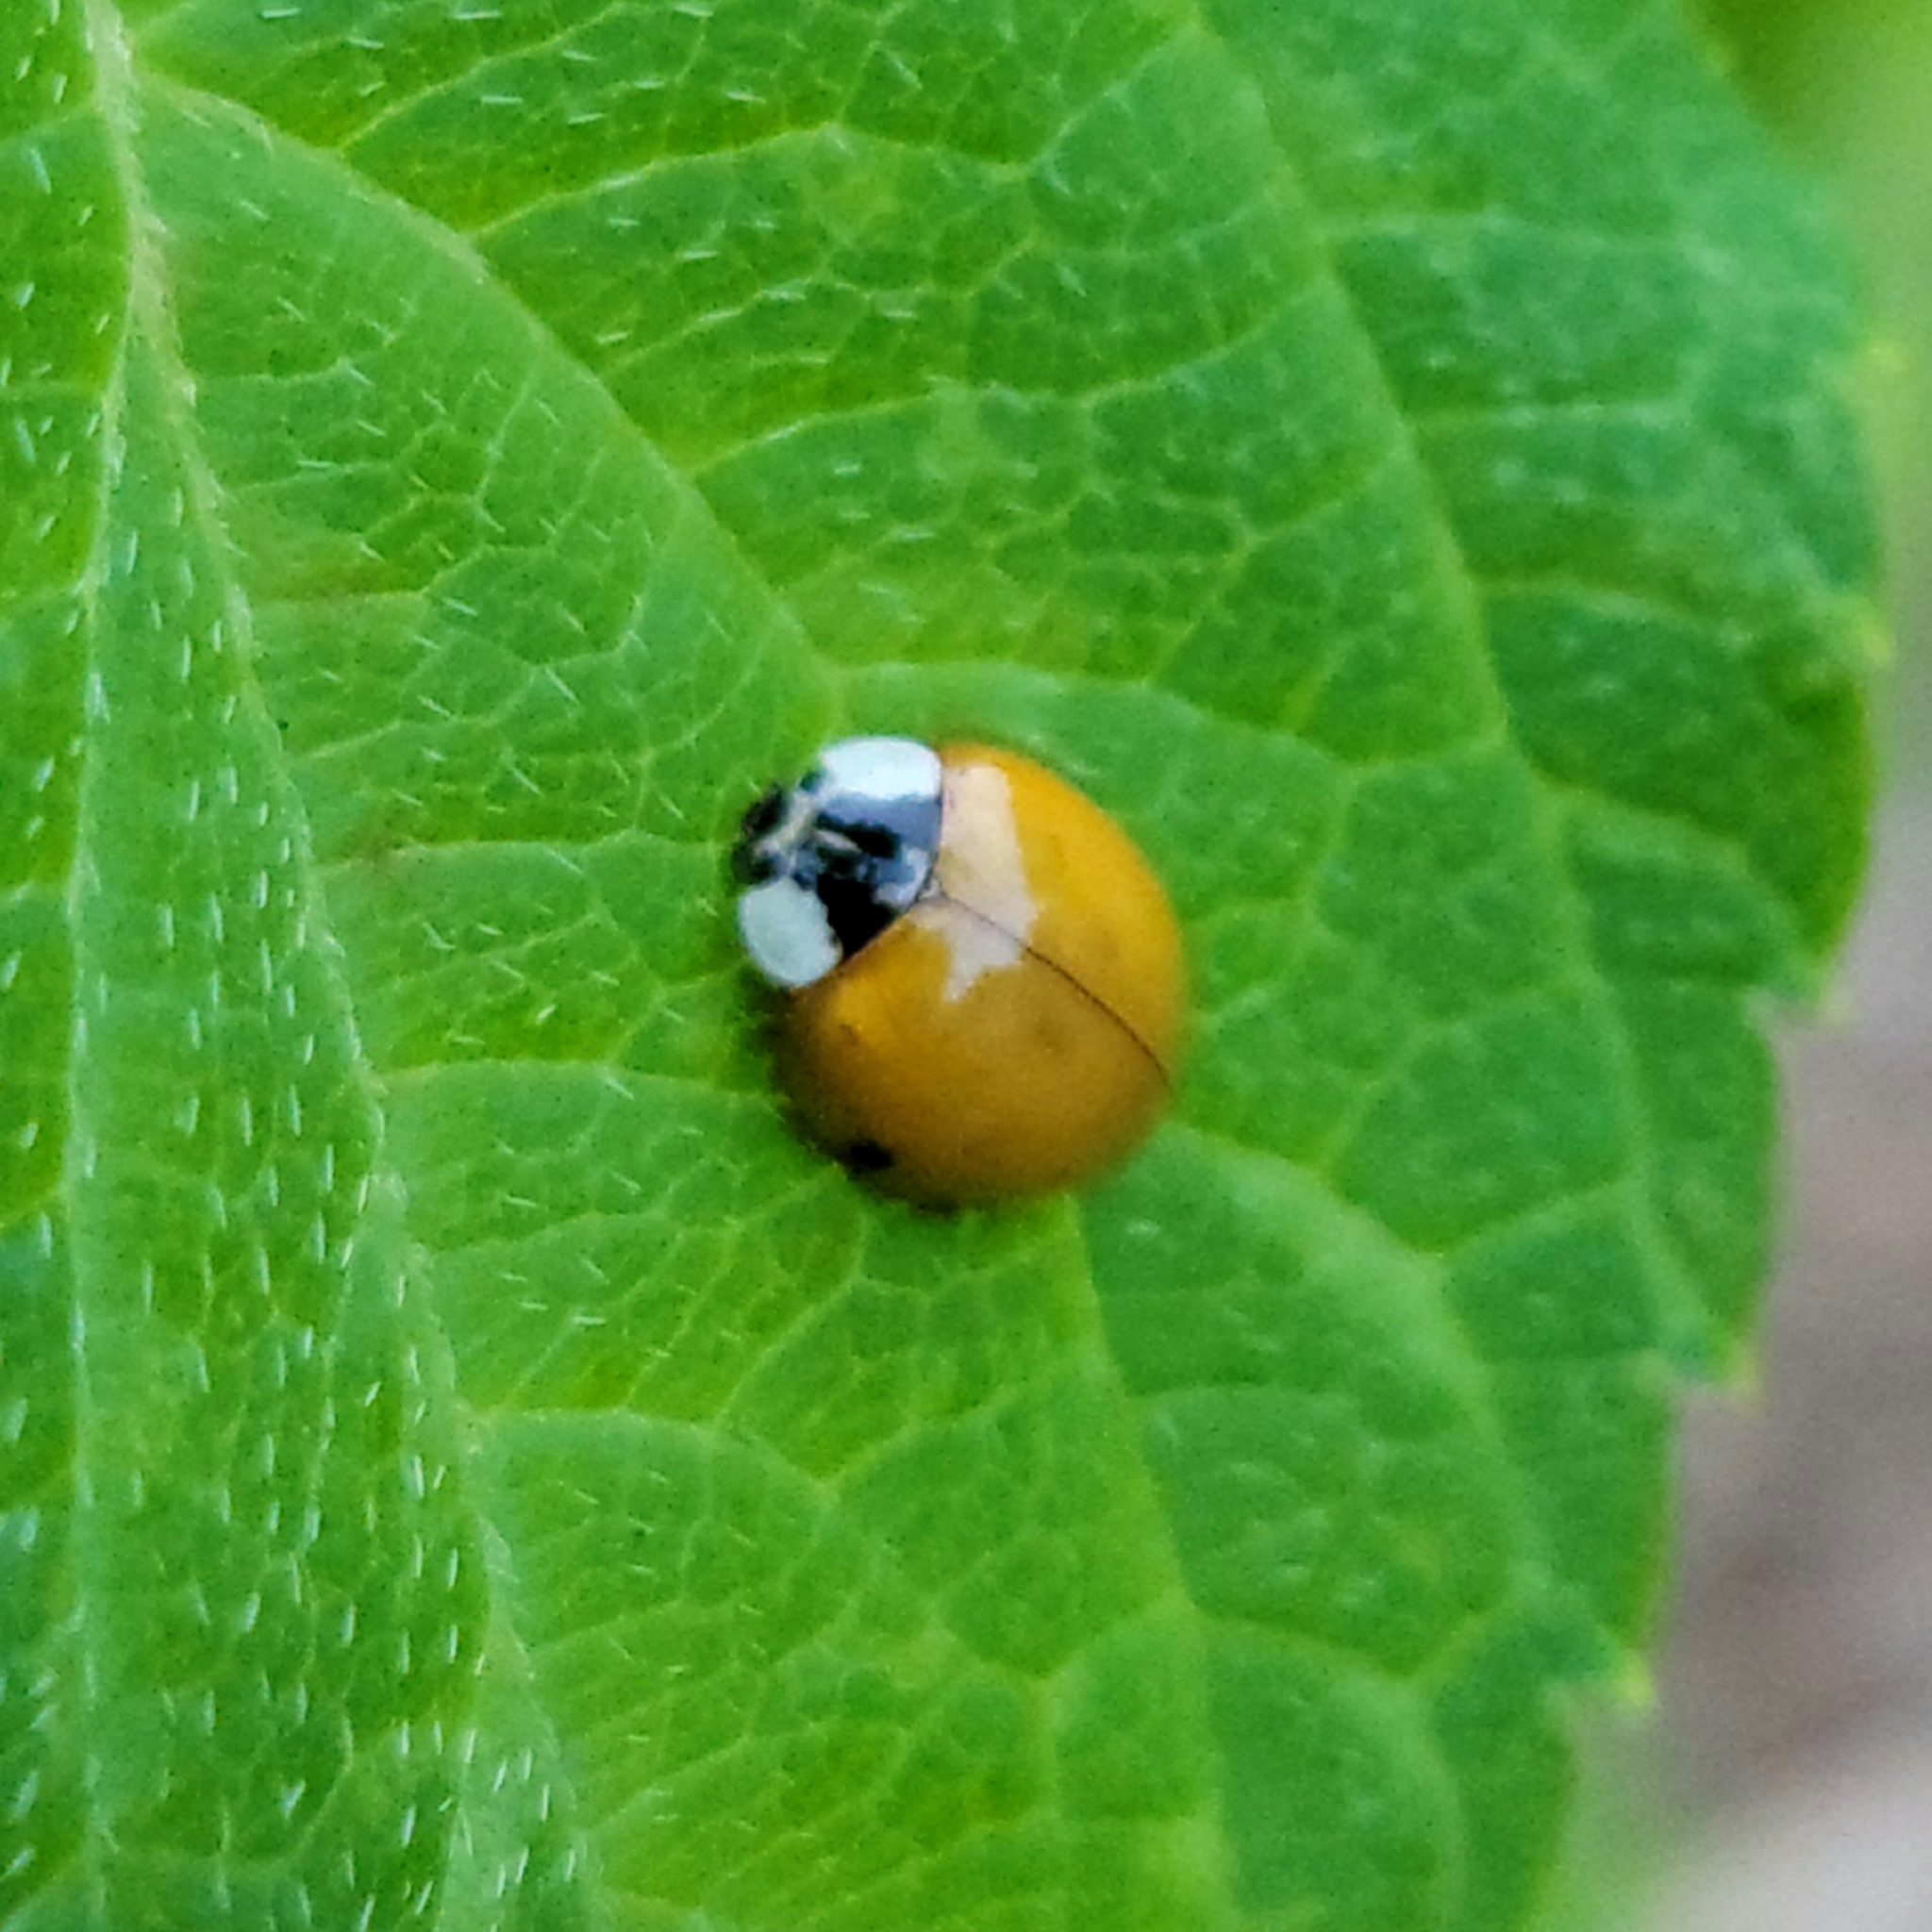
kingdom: Animalia
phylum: Arthropoda
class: Insecta
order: Coleoptera
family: Coccinellidae
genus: Harmonia
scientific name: Harmonia axyridis
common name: Harlequin ladybird
